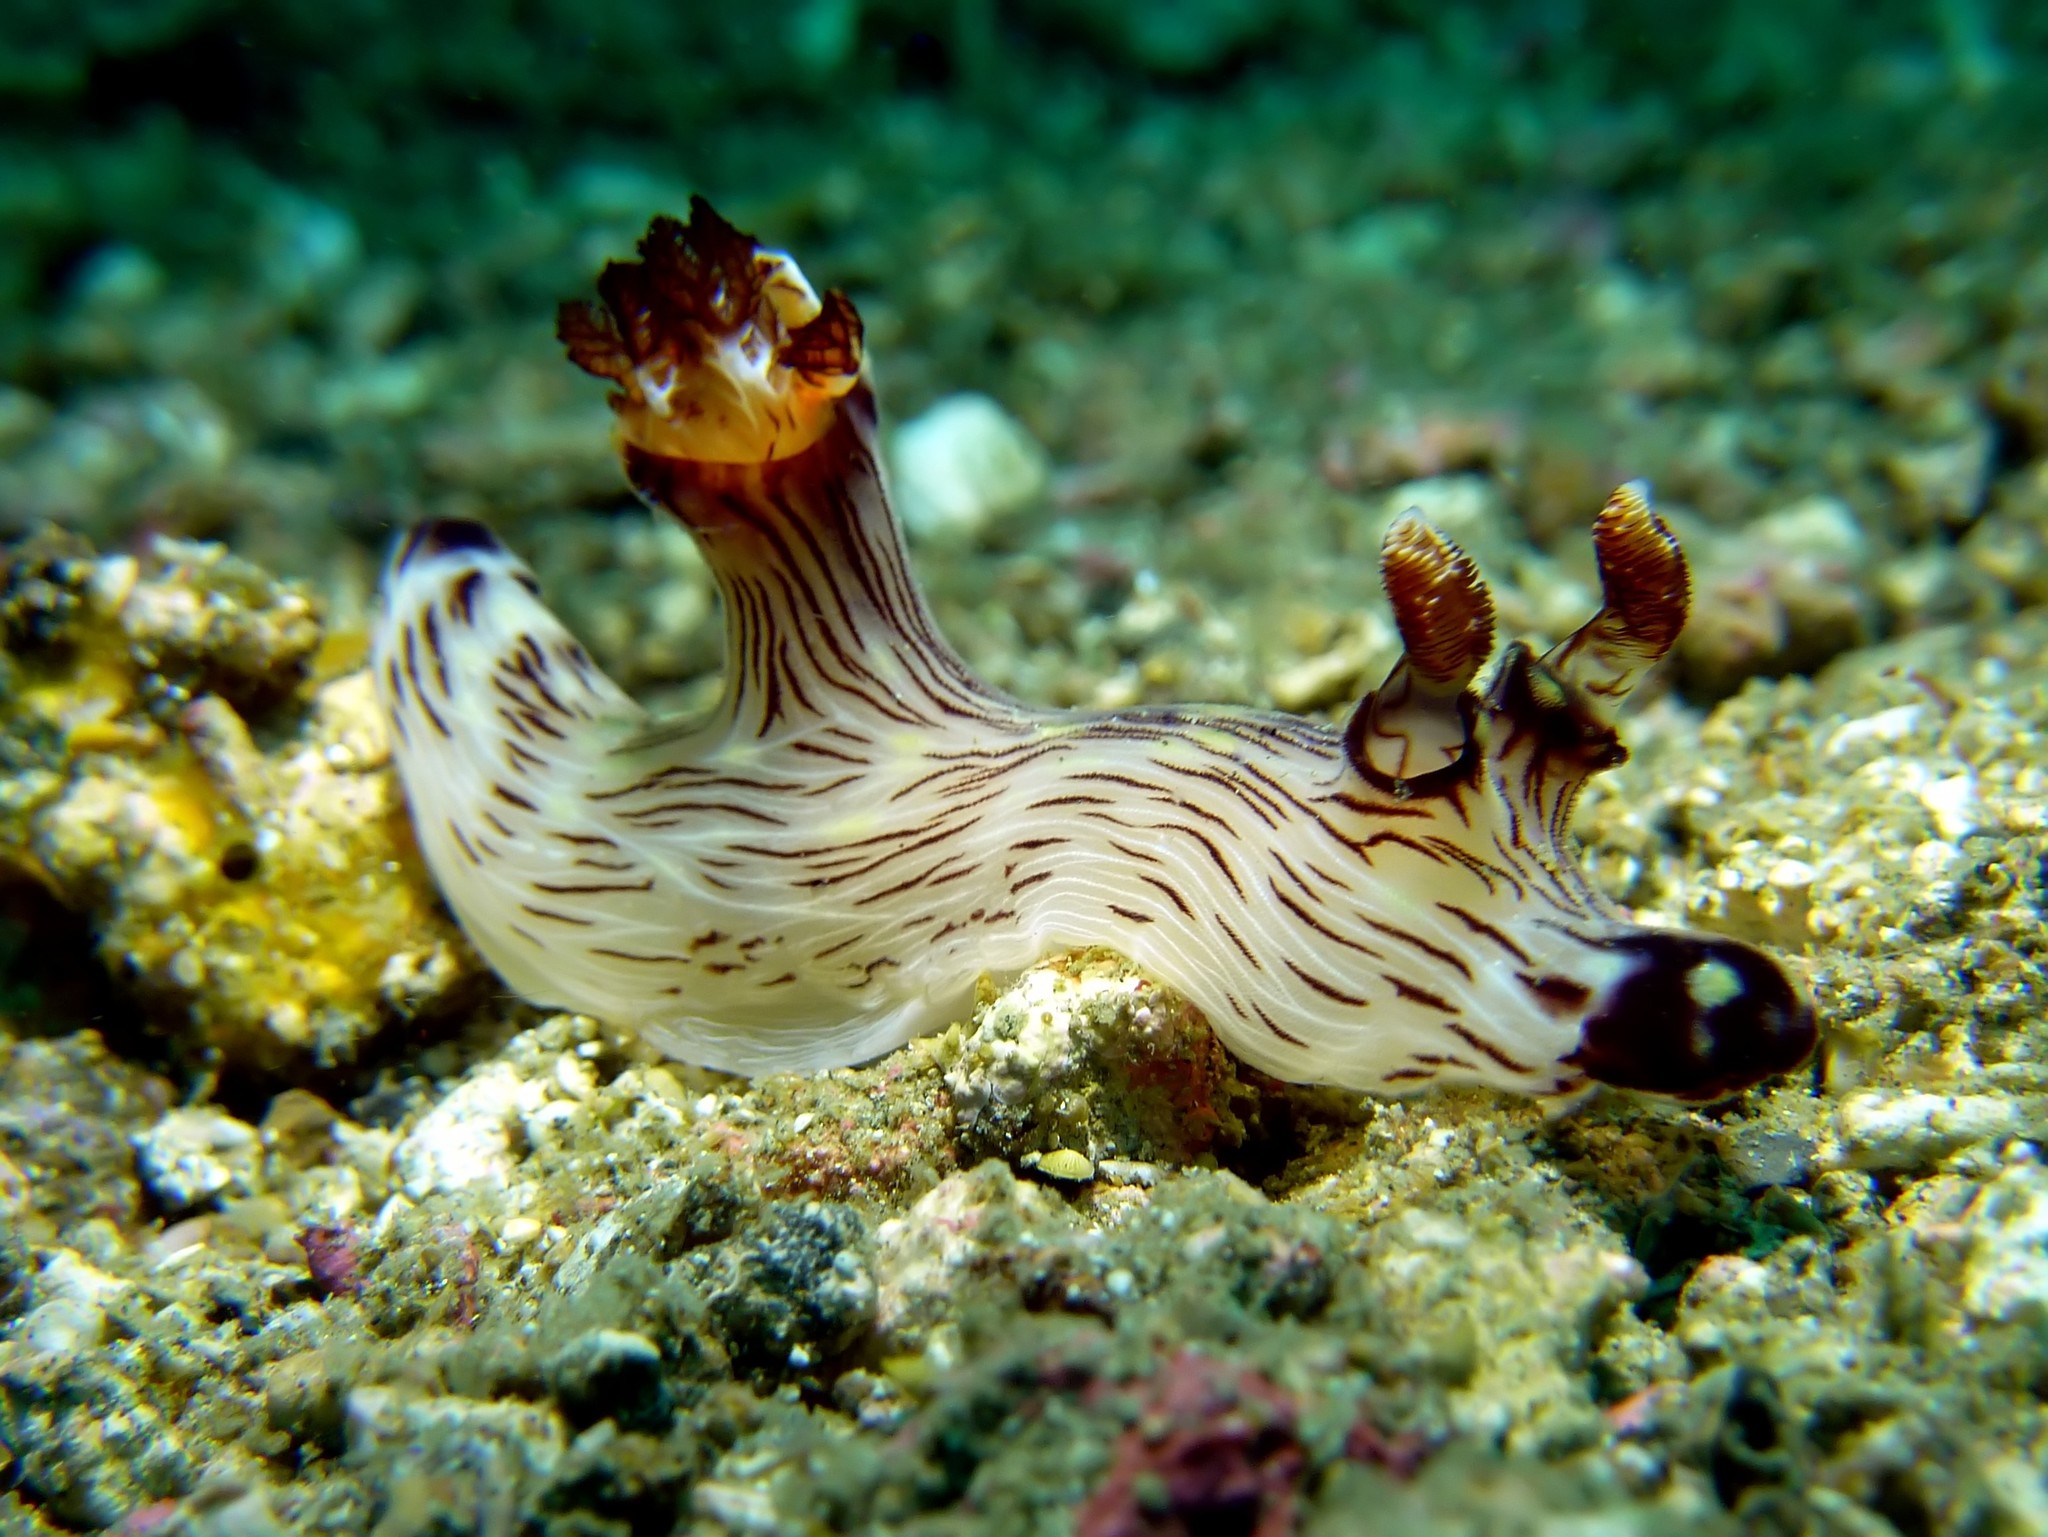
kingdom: Animalia
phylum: Mollusca
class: Gastropoda
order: Nudibranchia
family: Discodorididae
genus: Jorunna
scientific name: Jorunna rubescens
